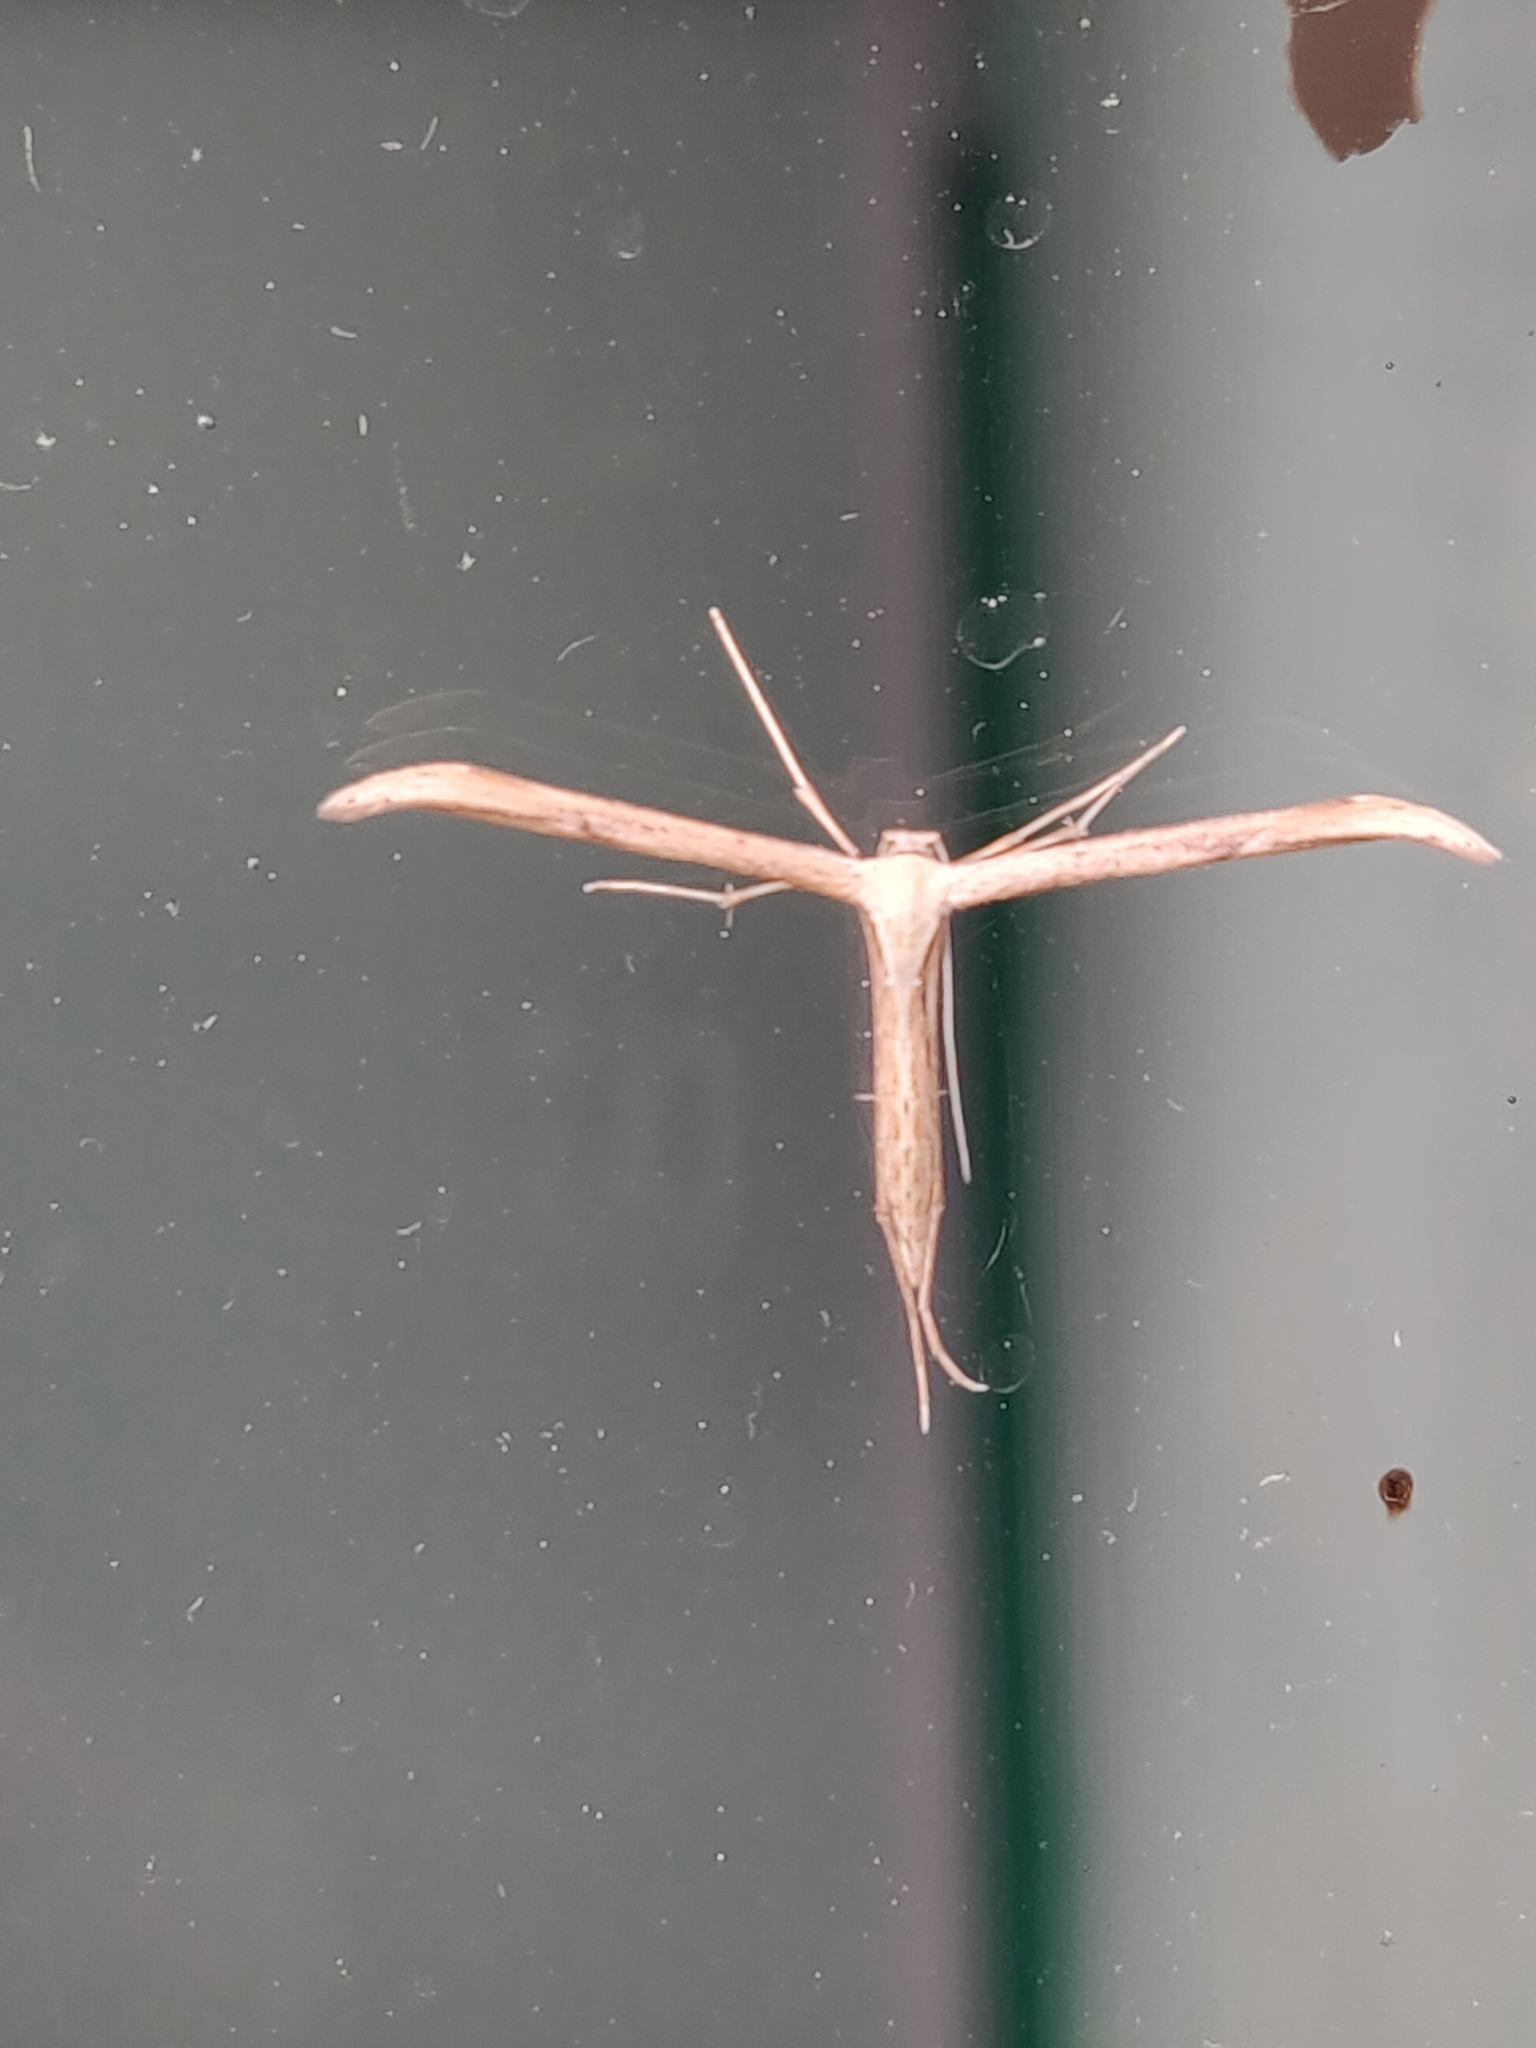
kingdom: Animalia
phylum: Arthropoda
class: Insecta
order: Lepidoptera
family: Pterophoridae
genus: Emmelina
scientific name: Emmelina monodactyla
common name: Common plume
